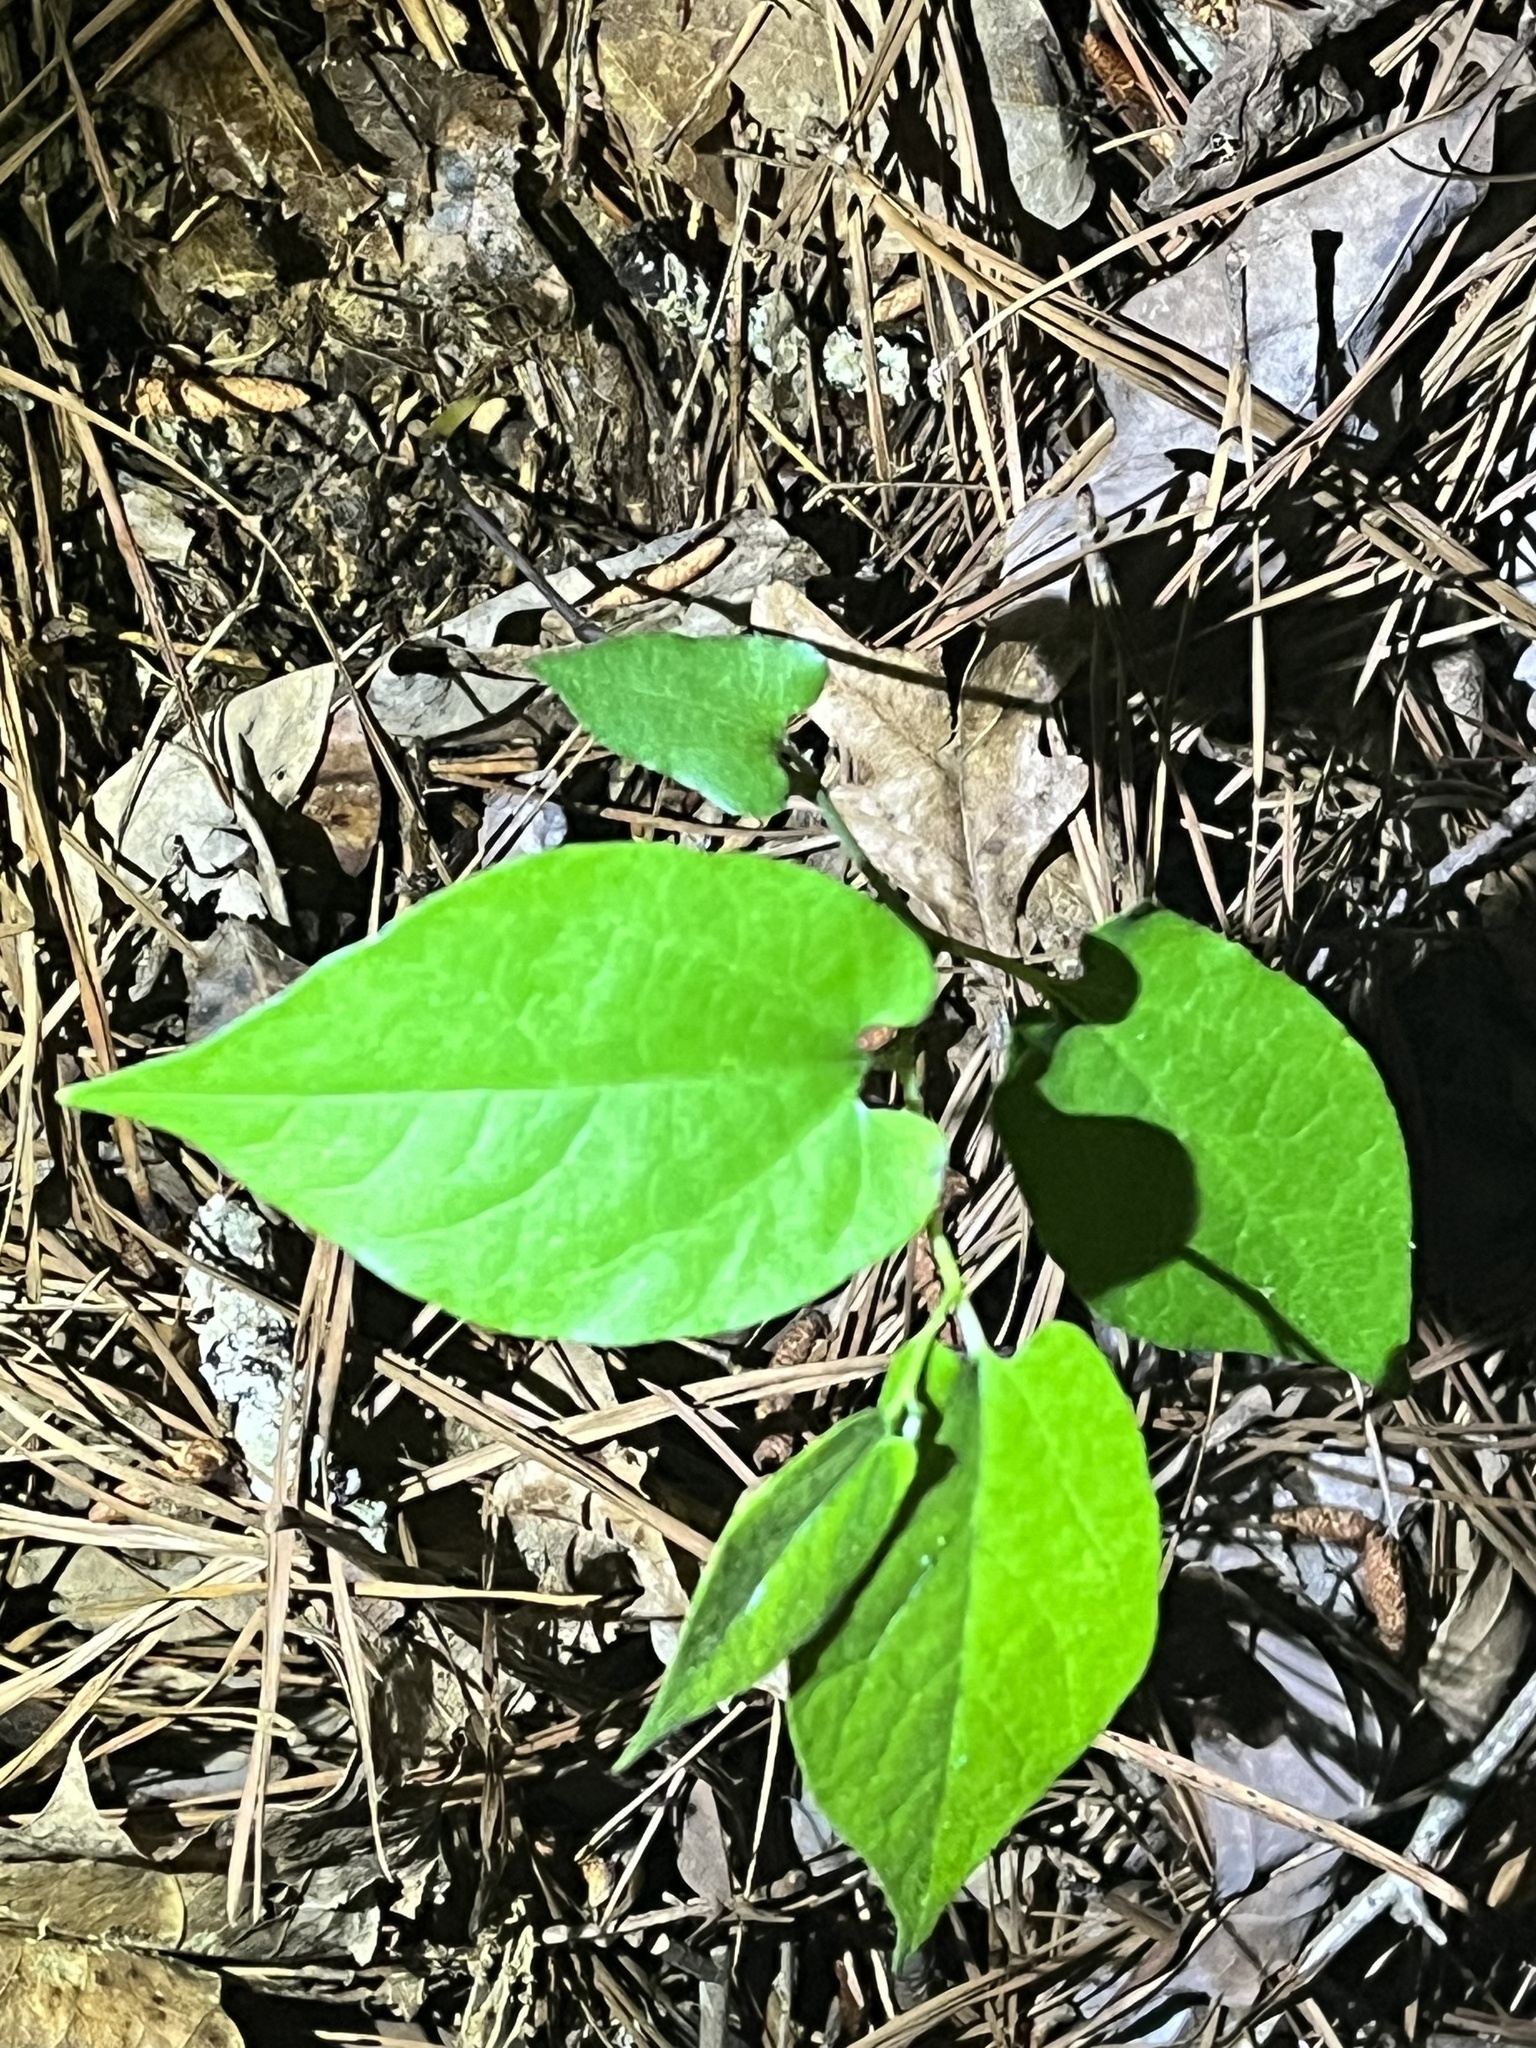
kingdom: Plantae
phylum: Tracheophyta
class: Magnoliopsida
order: Piperales
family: Aristolochiaceae
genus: Endodeca
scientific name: Endodeca serpentaria
